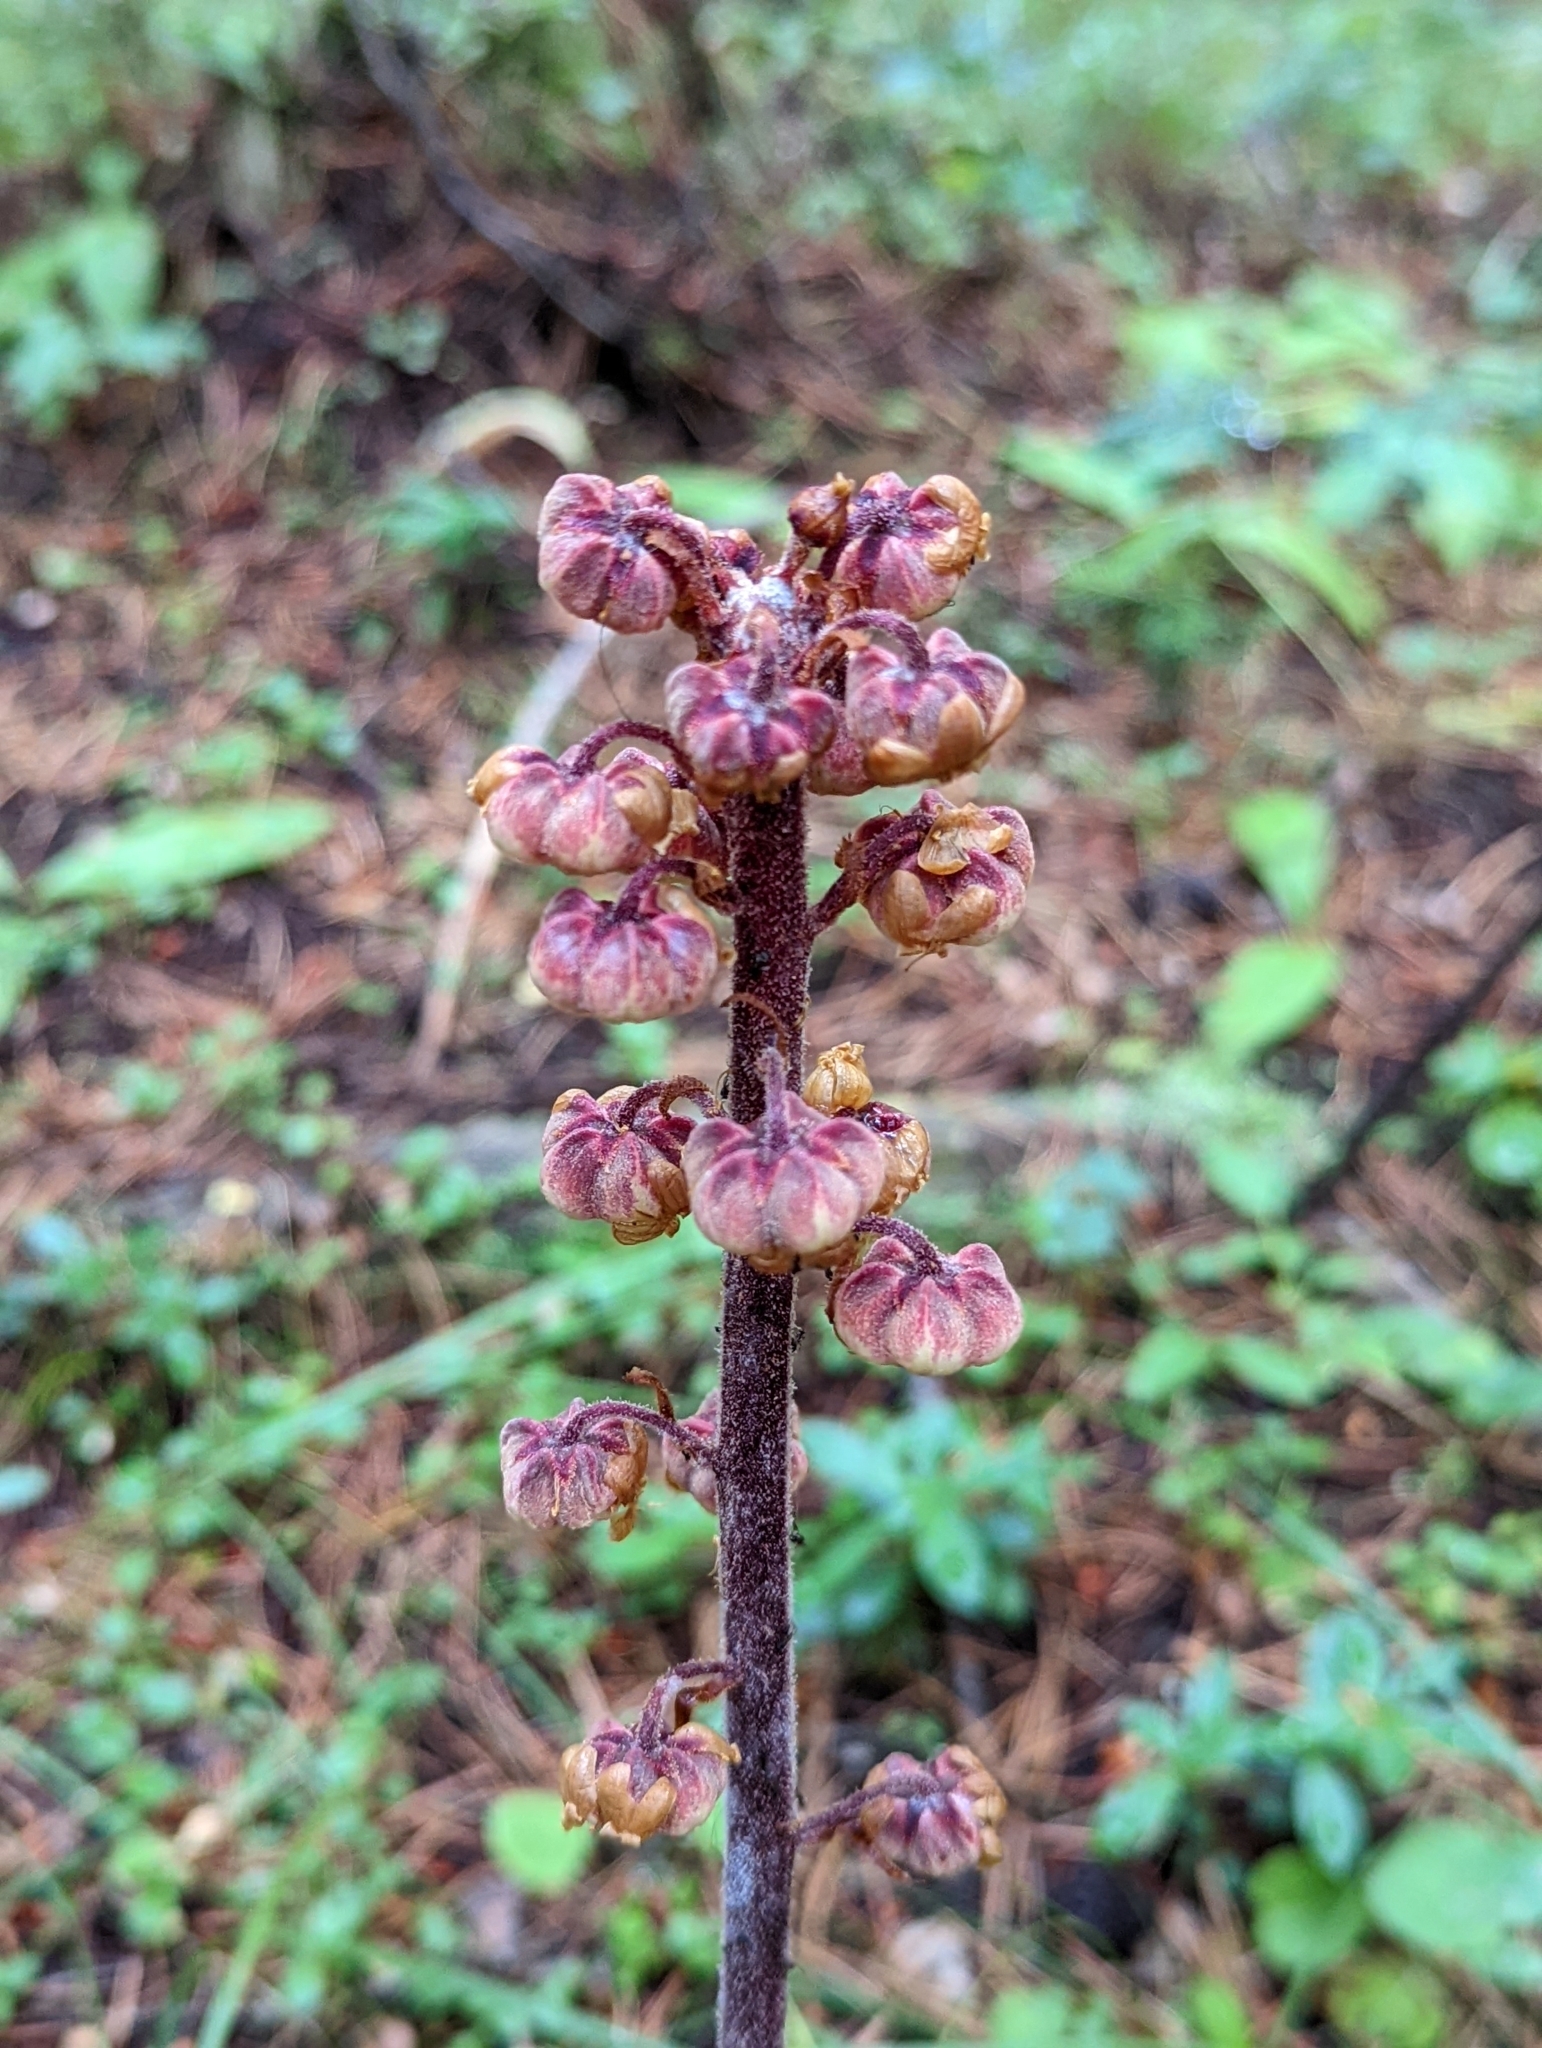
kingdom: Plantae
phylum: Tracheophyta
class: Magnoliopsida
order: Ericales
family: Ericaceae
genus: Pterospora
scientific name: Pterospora andromedea
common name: Giant bird's-nest
